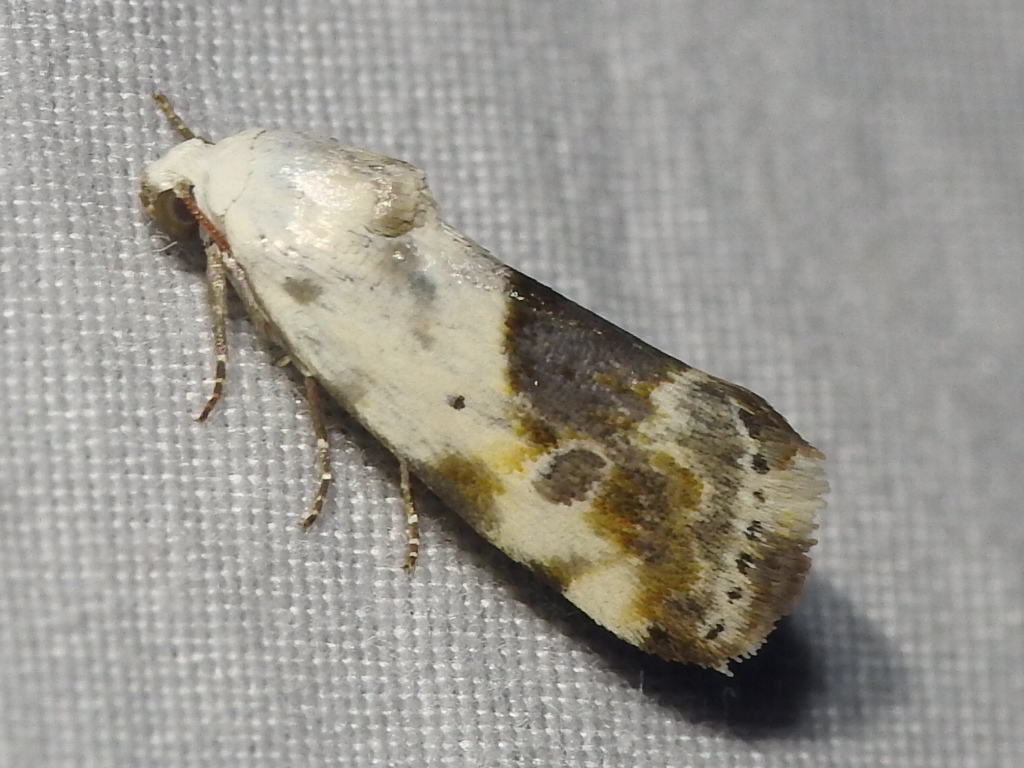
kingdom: Animalia
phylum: Arthropoda
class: Insecta
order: Lepidoptera
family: Noctuidae
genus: Acontia
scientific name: Acontia candefacta
